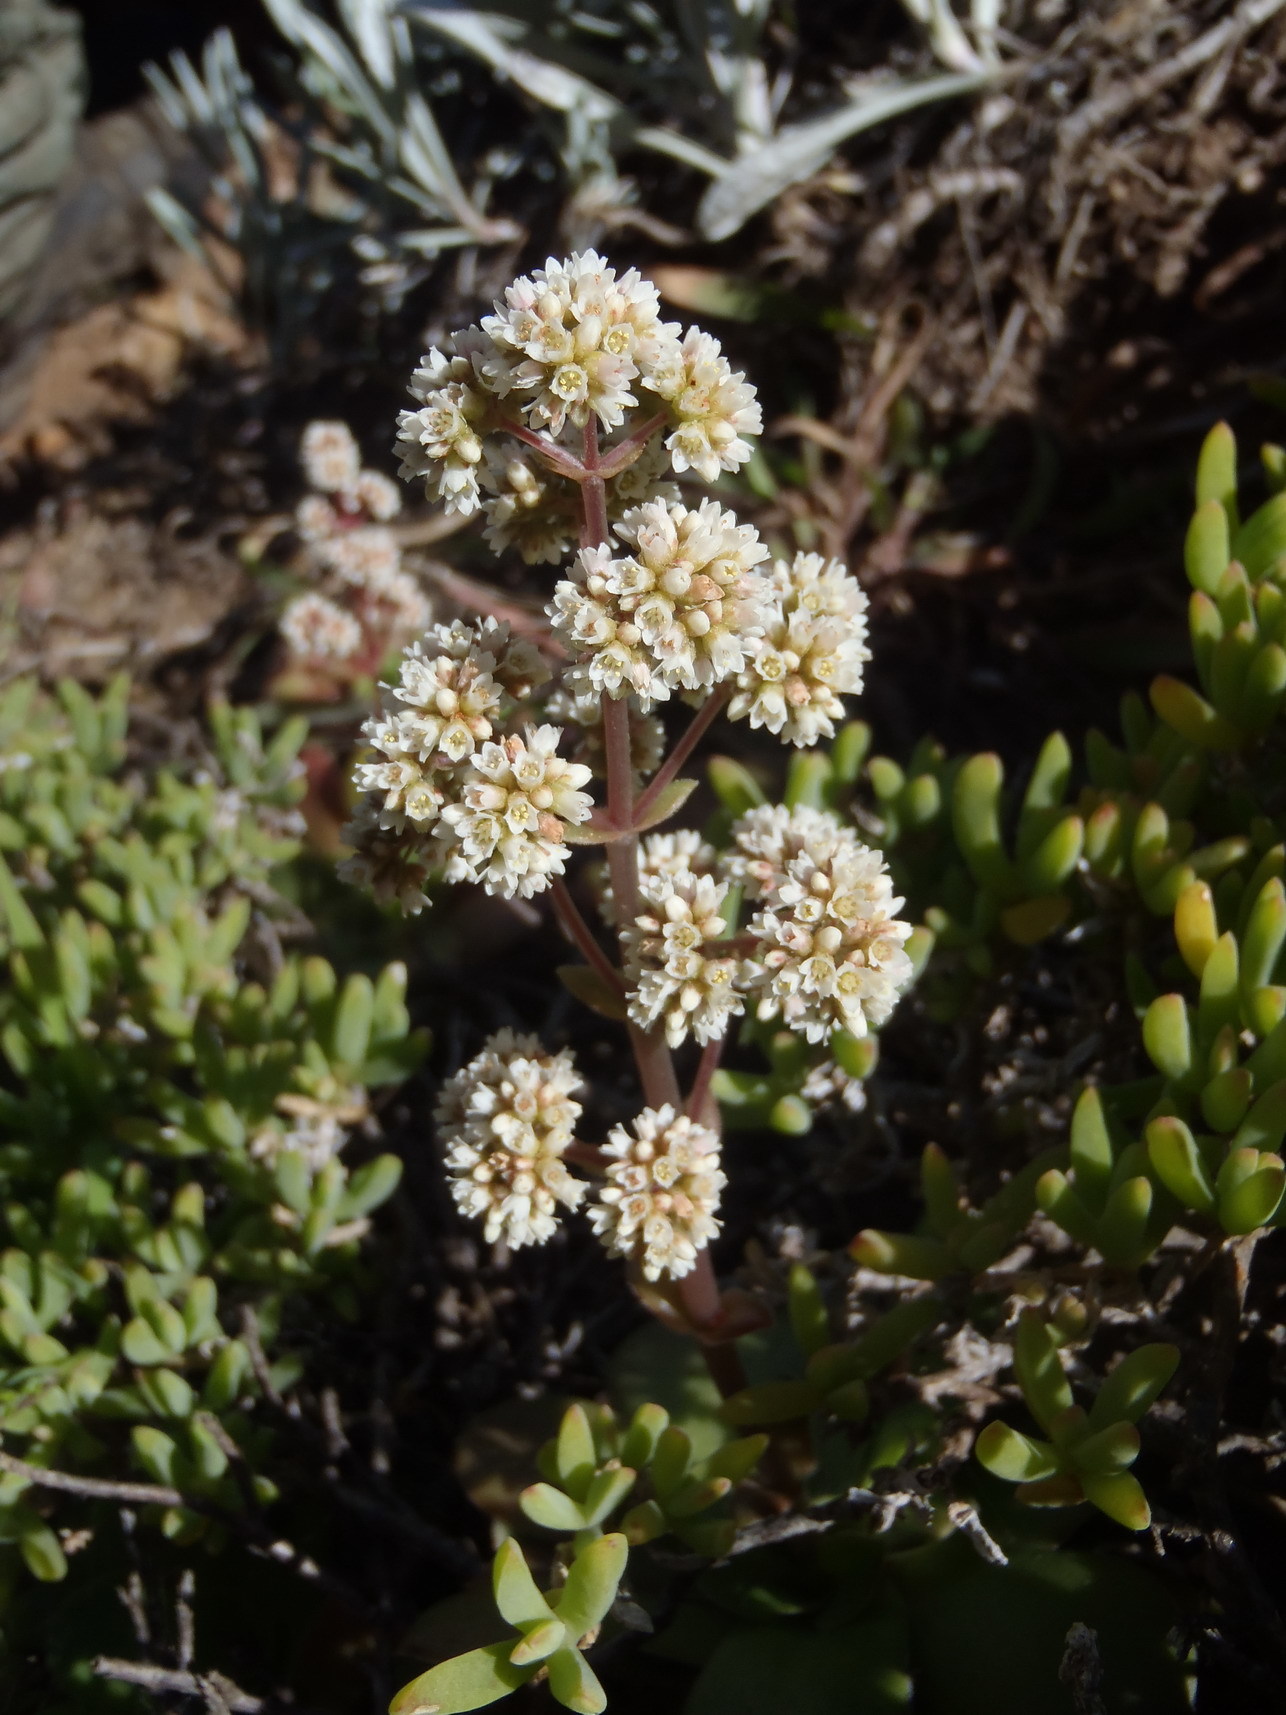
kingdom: Plantae
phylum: Tracheophyta
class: Magnoliopsida
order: Saxifragales
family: Crassulaceae
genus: Crassula
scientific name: Crassula orbicularis
